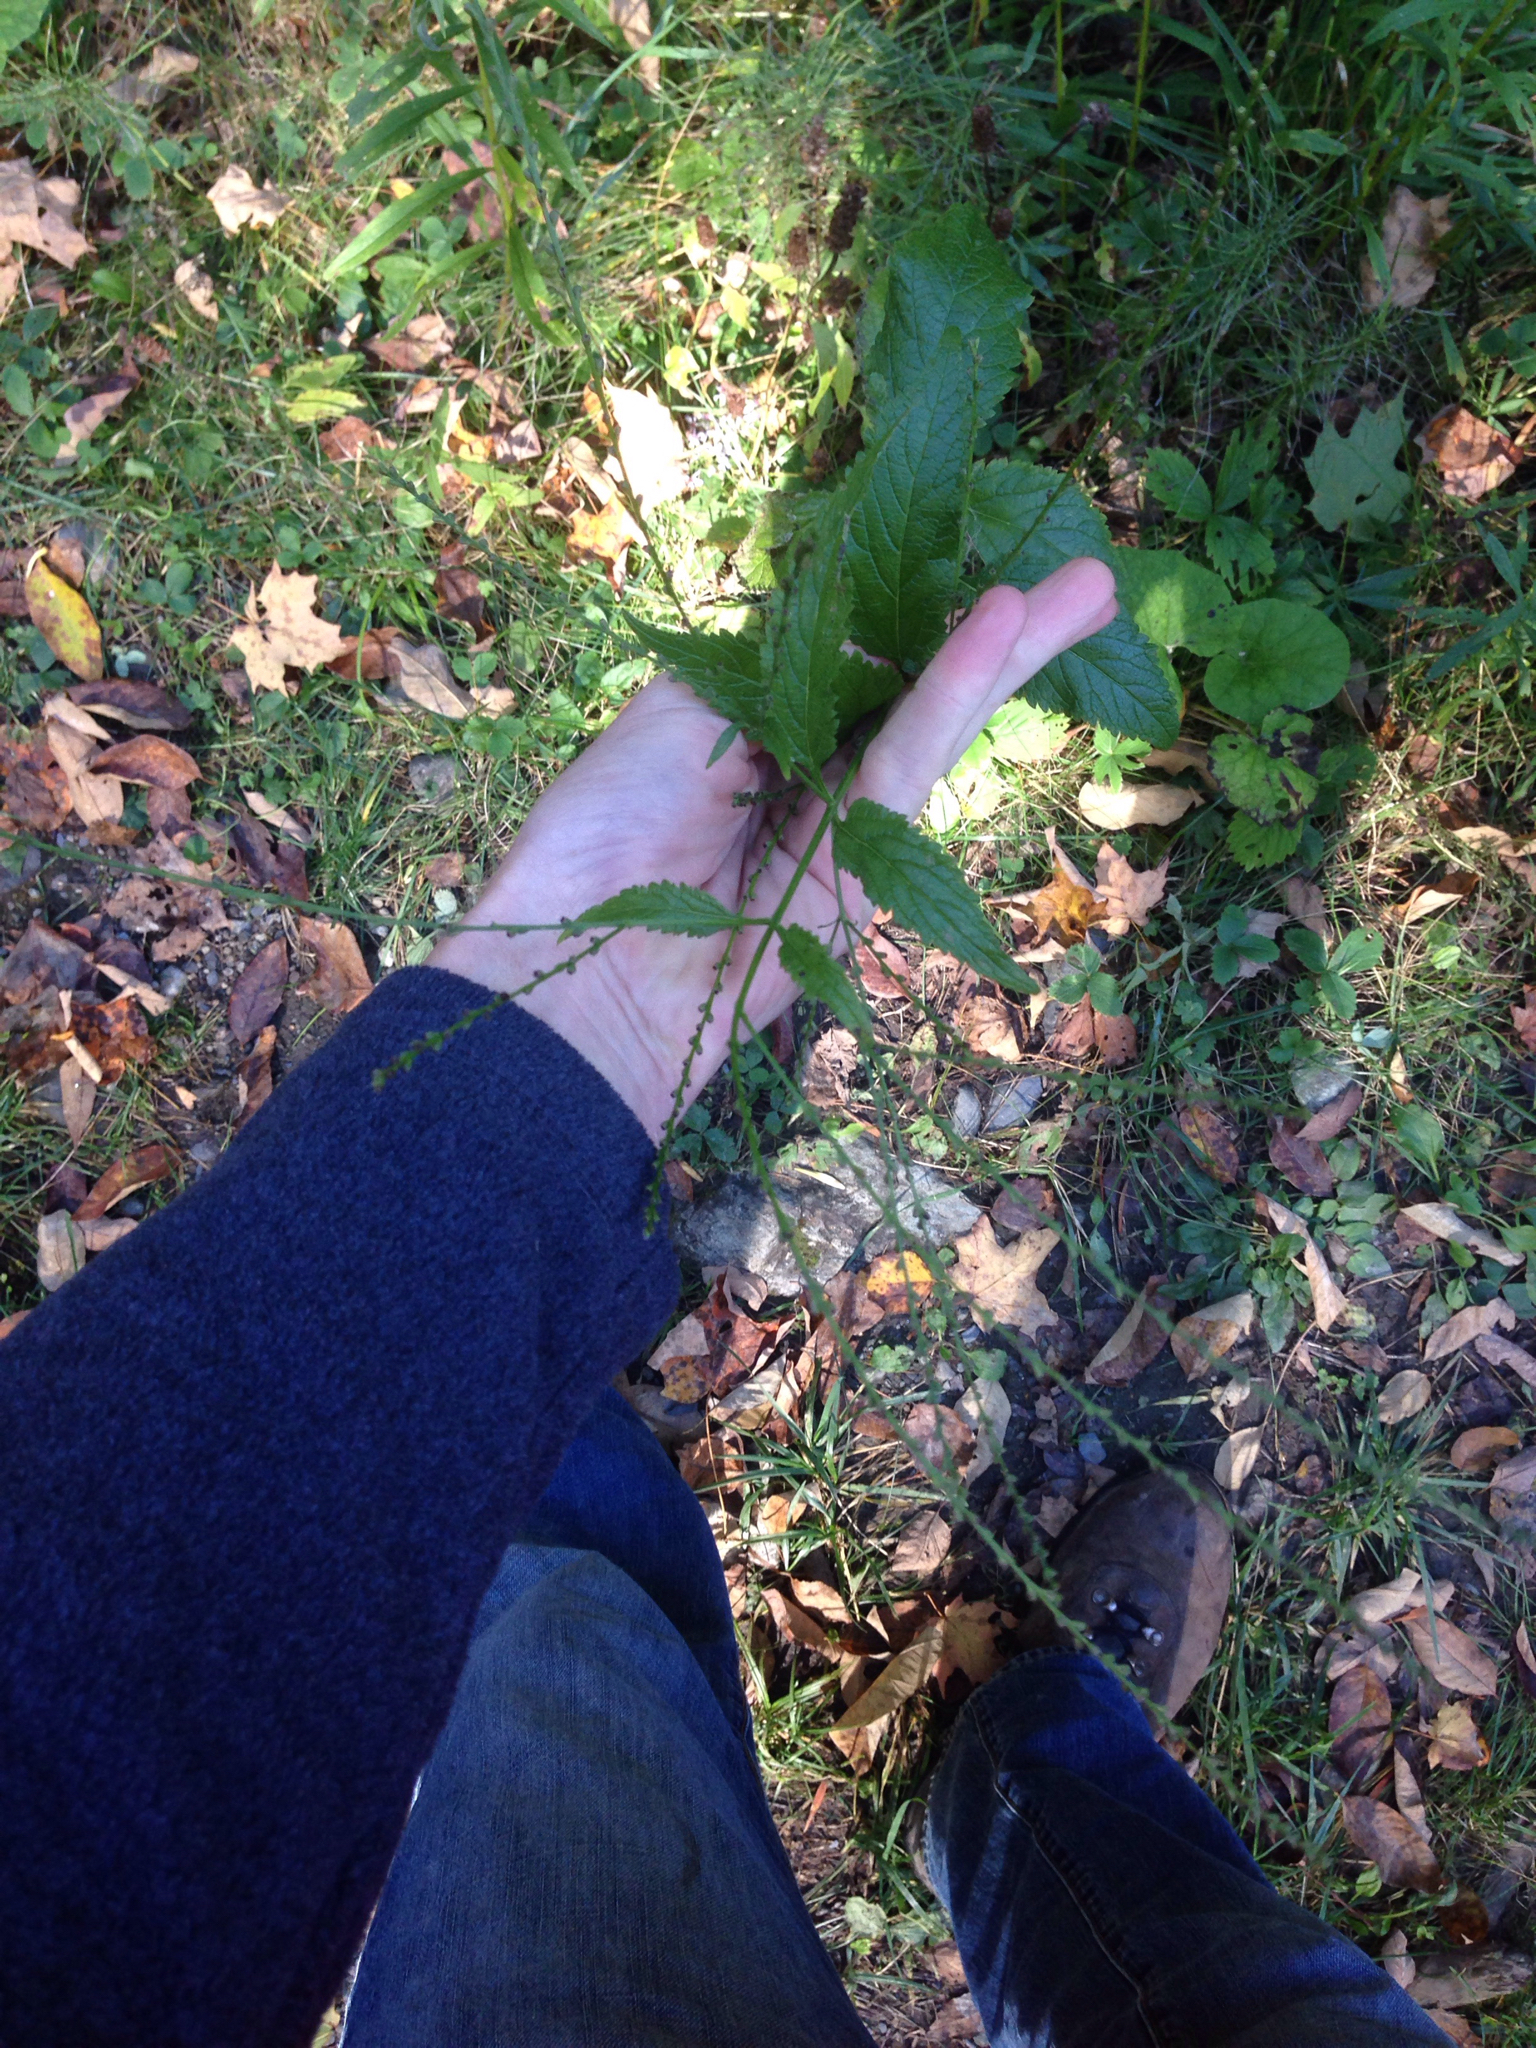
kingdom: Plantae
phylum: Tracheophyta
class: Magnoliopsida
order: Lamiales
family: Verbenaceae
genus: Verbena
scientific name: Verbena urticifolia
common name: Nettle-leaved vervain
